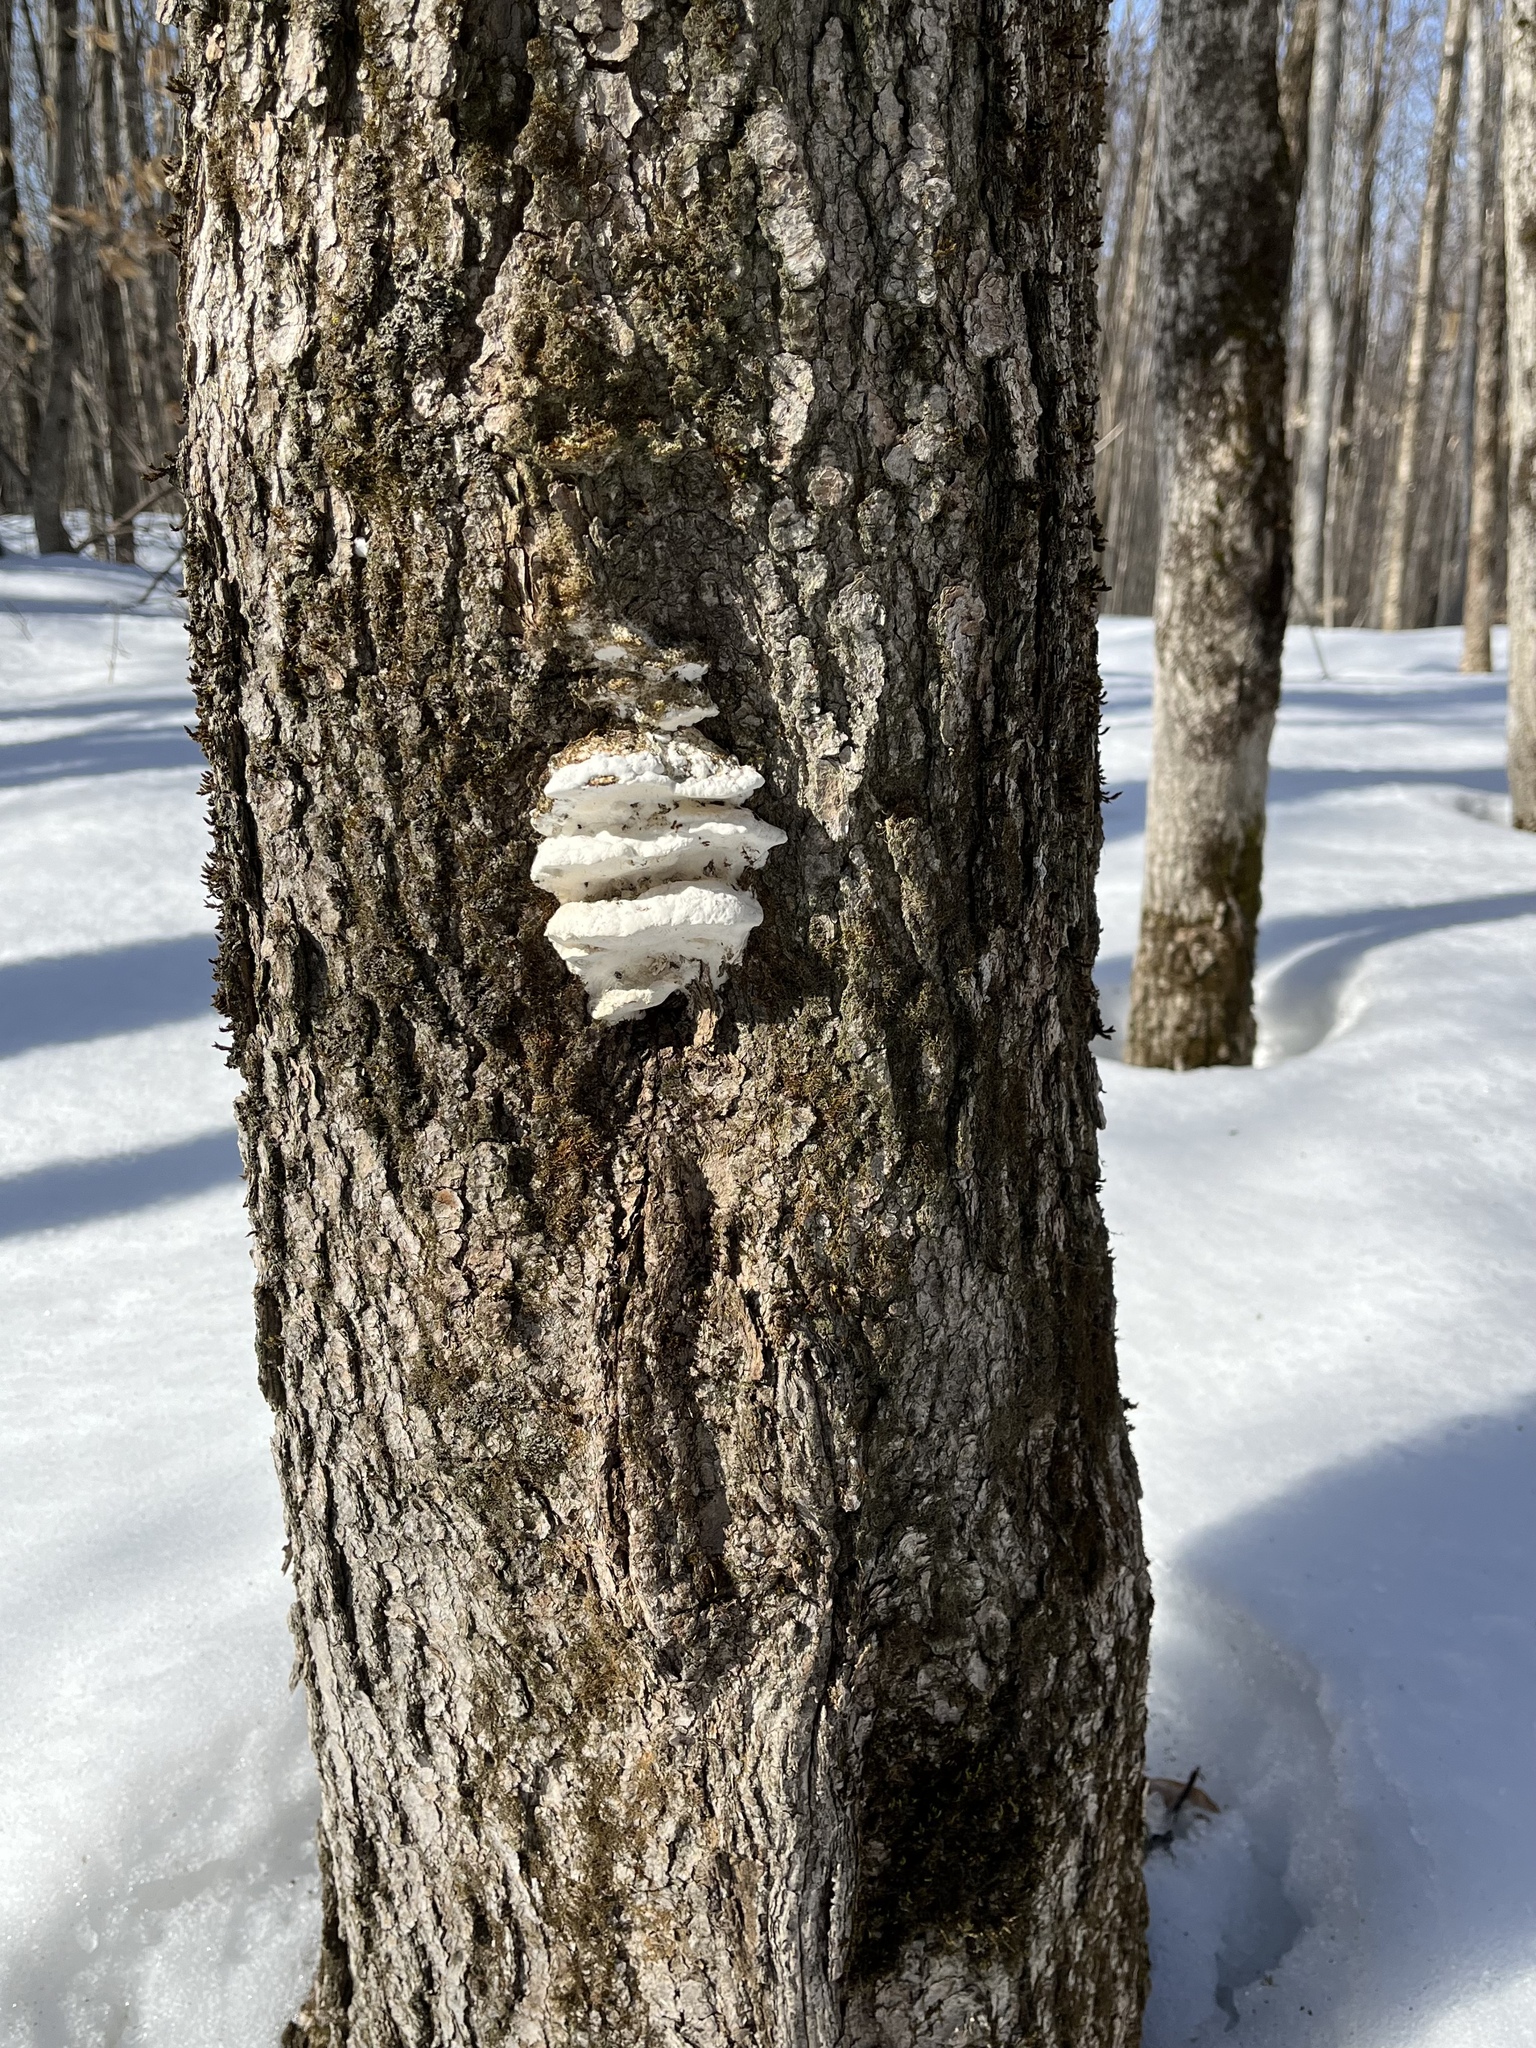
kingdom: Fungi
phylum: Basidiomycota
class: Agaricomycetes
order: Hymenochaetales
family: Oxyporaceae
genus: Oxyporus
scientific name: Oxyporus populinus
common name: Poplar bracket
